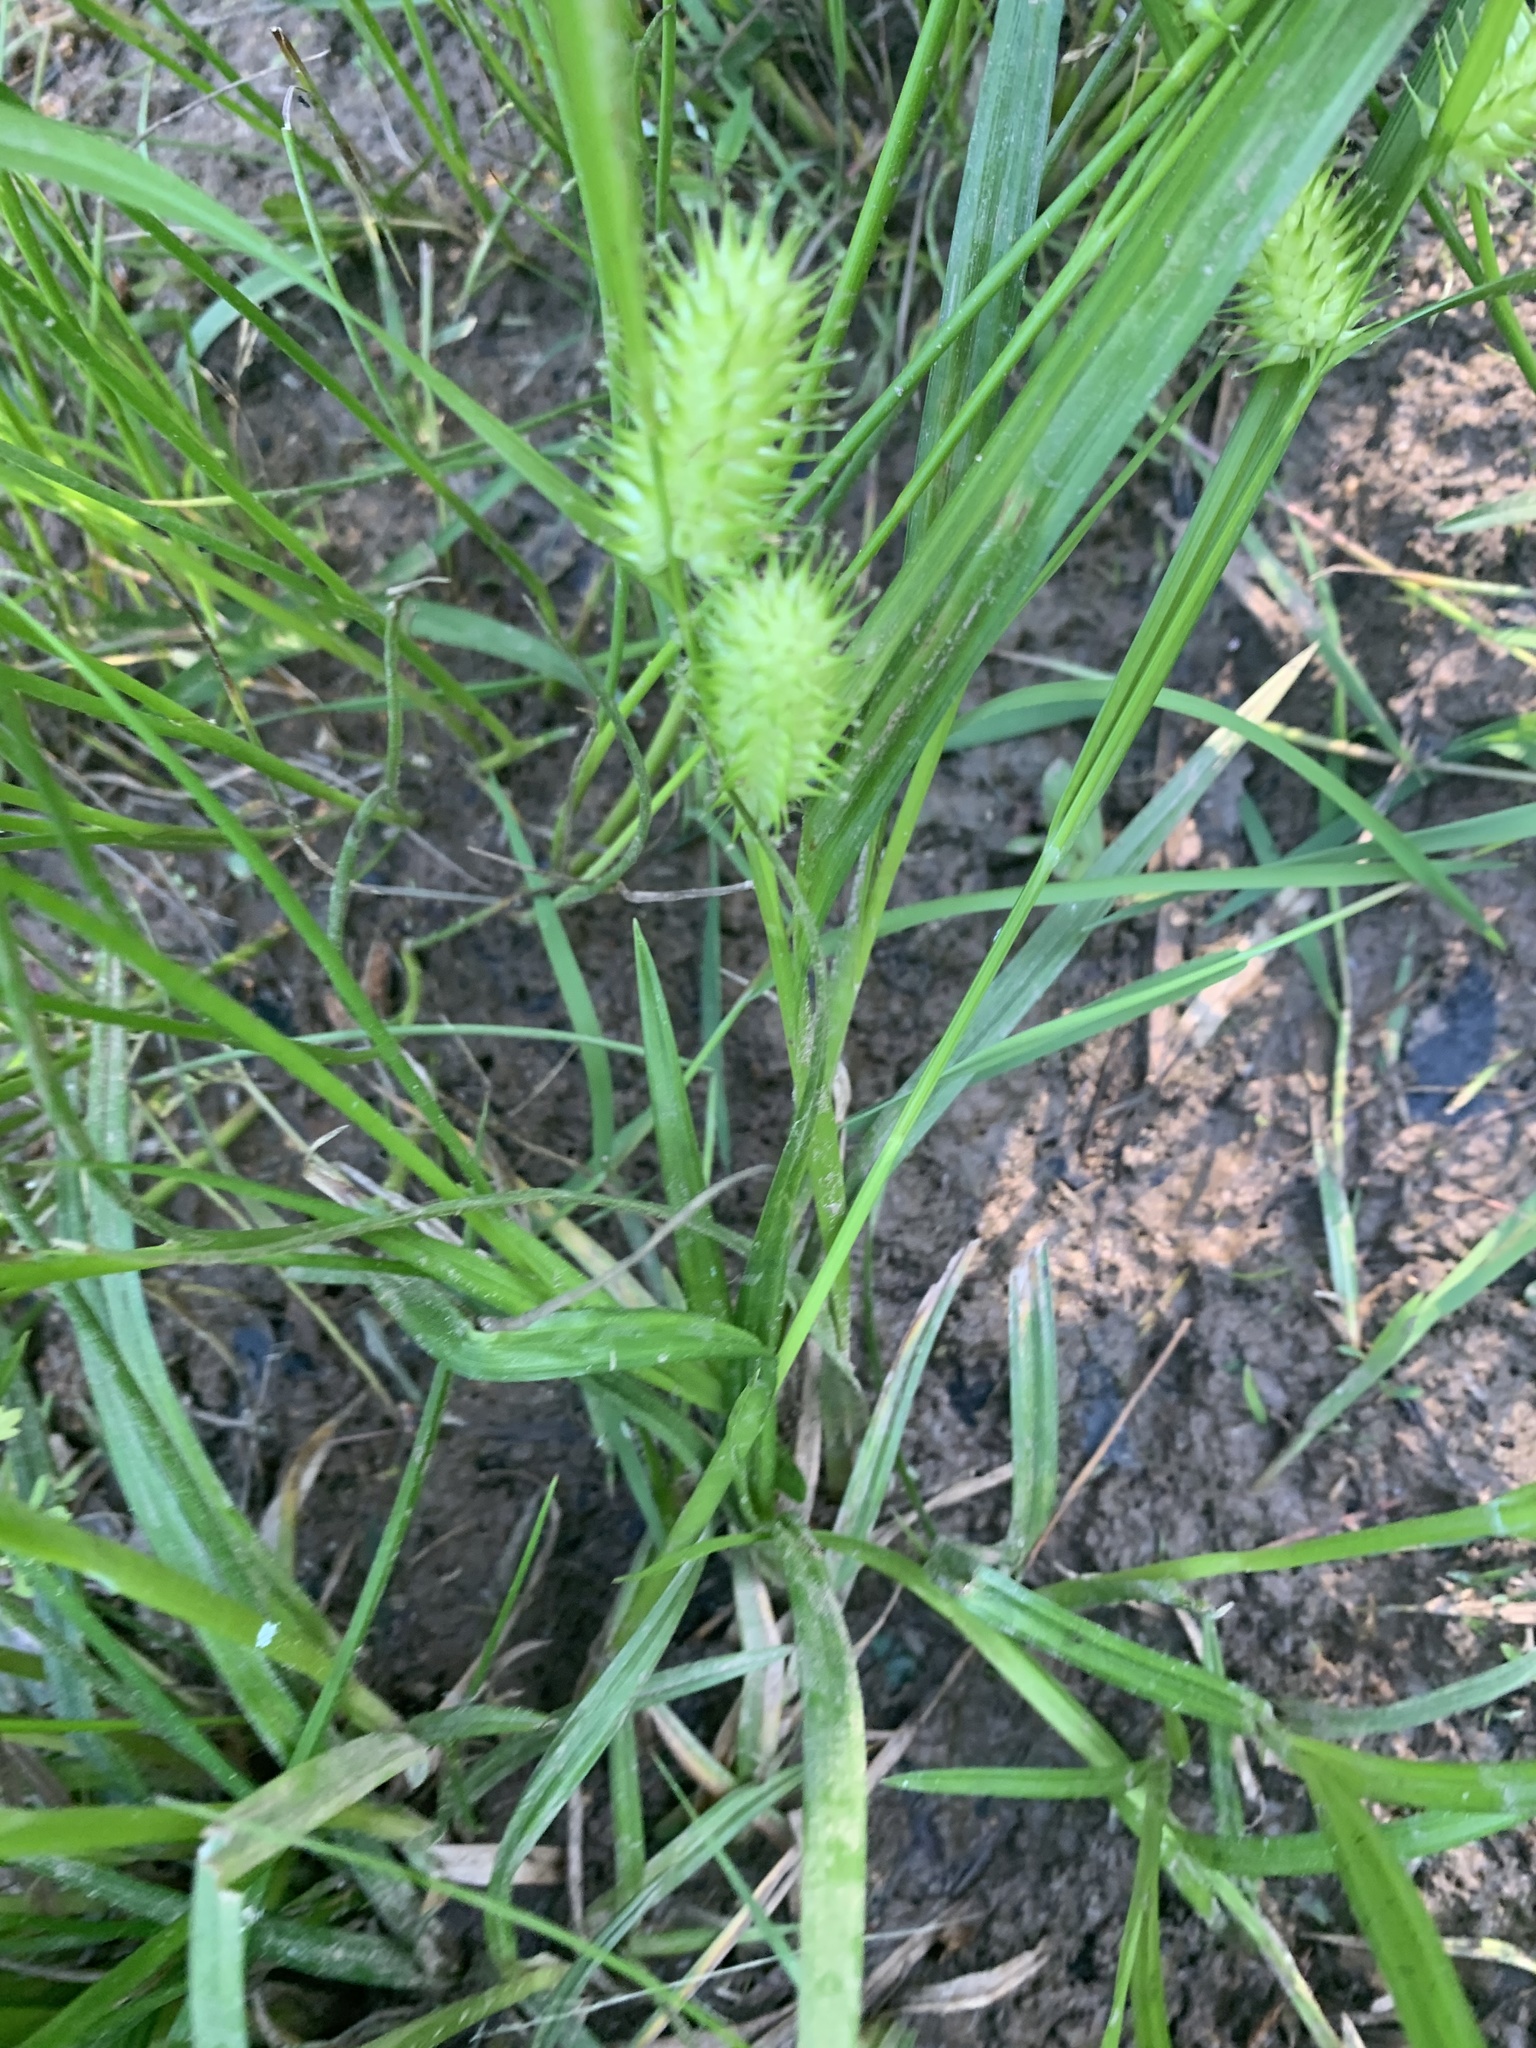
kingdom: Plantae
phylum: Tracheophyta
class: Liliopsida
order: Poales
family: Cyperaceae
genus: Carex
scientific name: Carex lurida
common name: Sallow sedge
